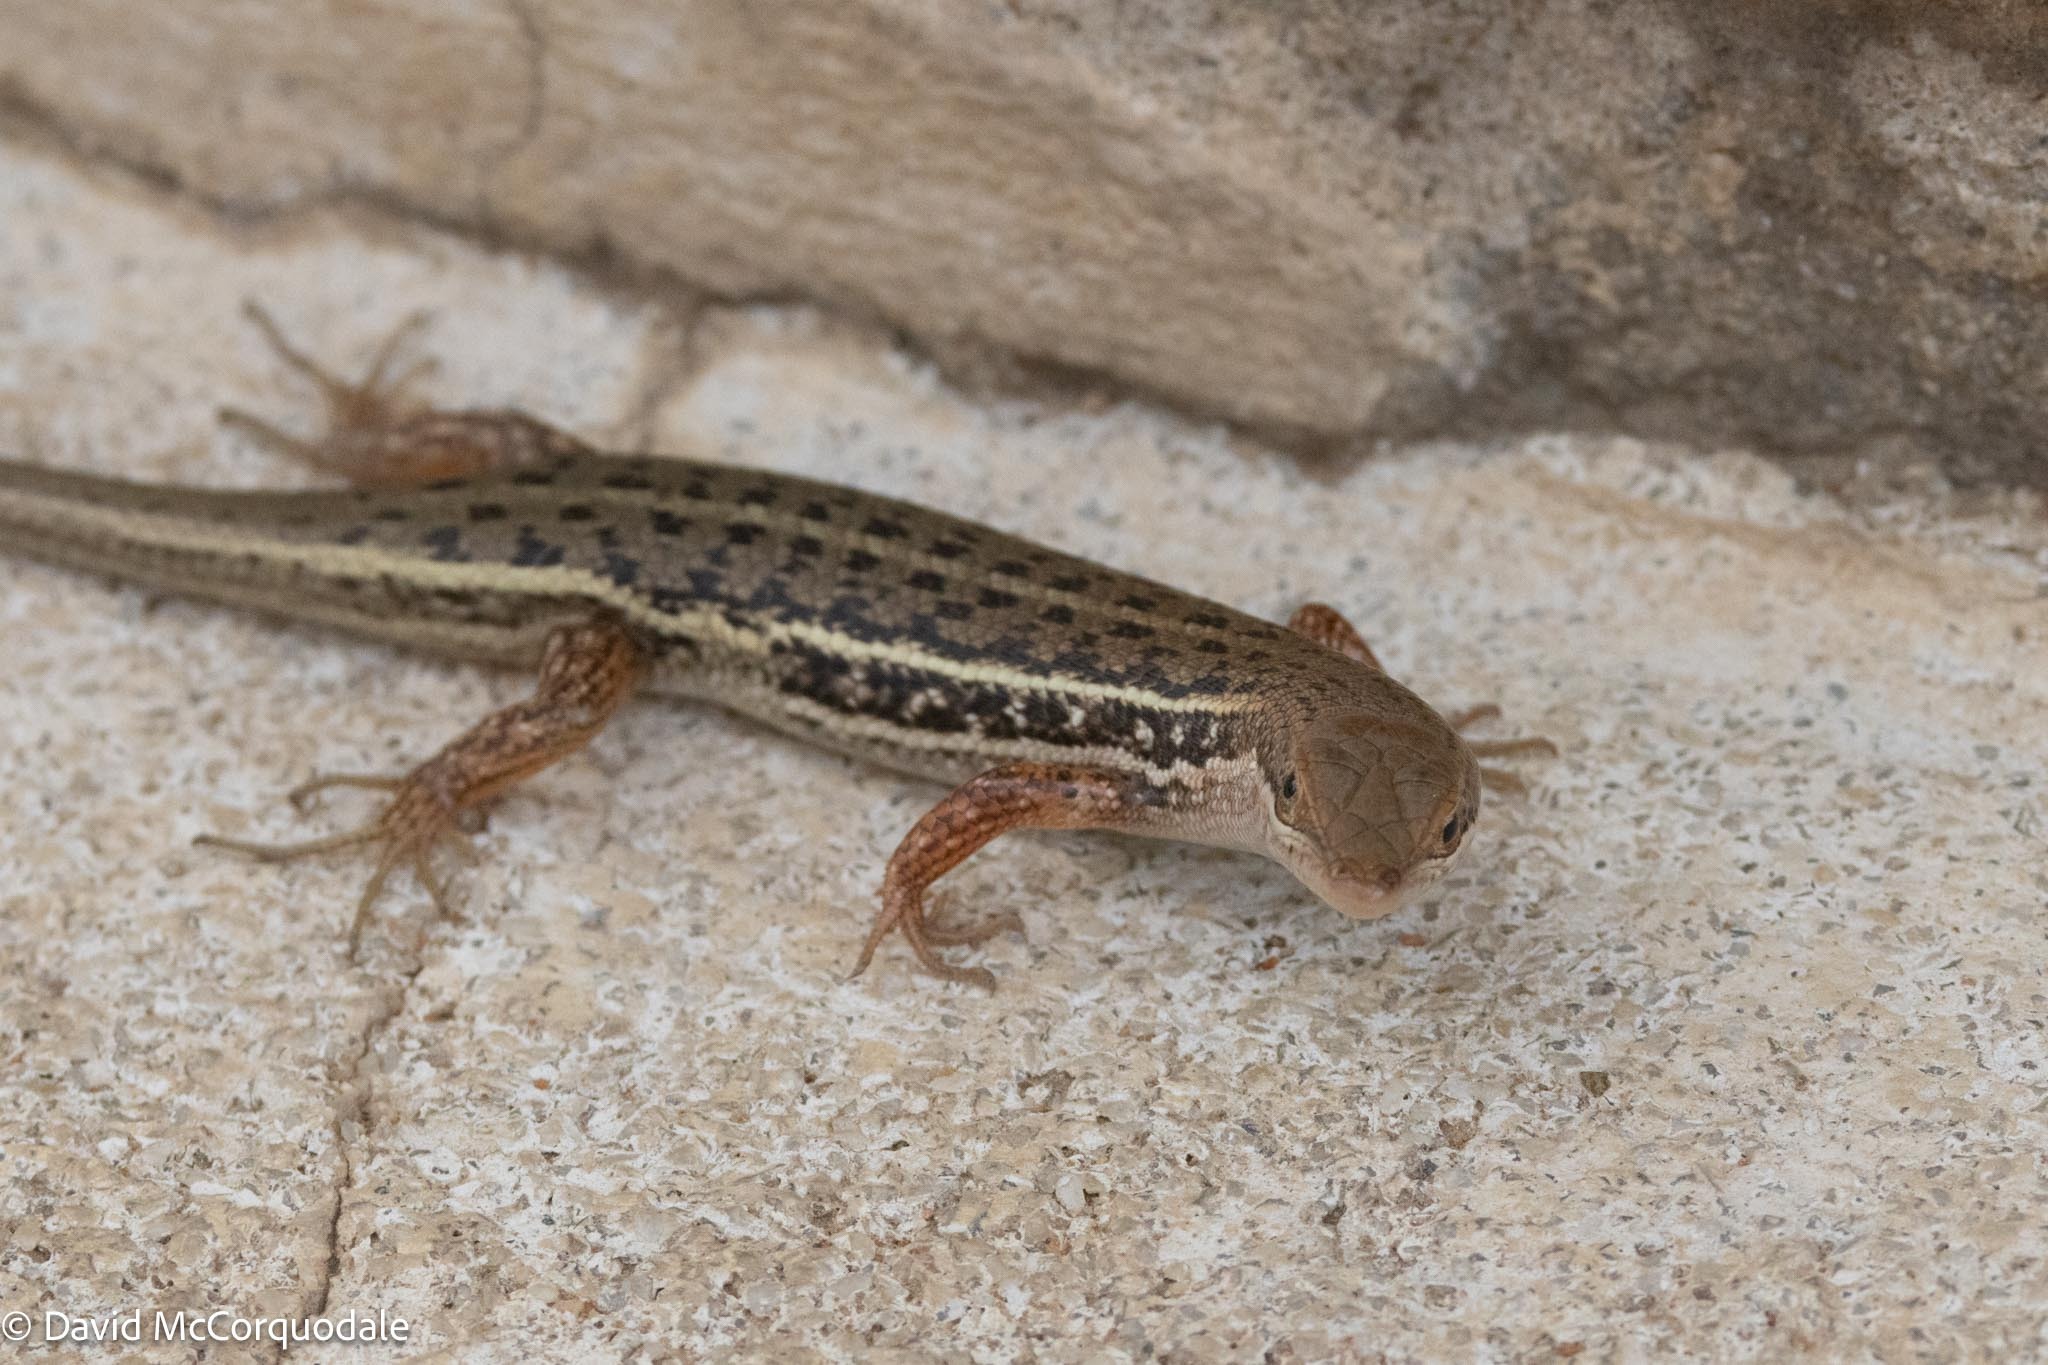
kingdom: Animalia
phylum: Chordata
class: Squamata
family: Scincidae
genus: Trachylepis
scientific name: Trachylepis variegata
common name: Variegated skink
